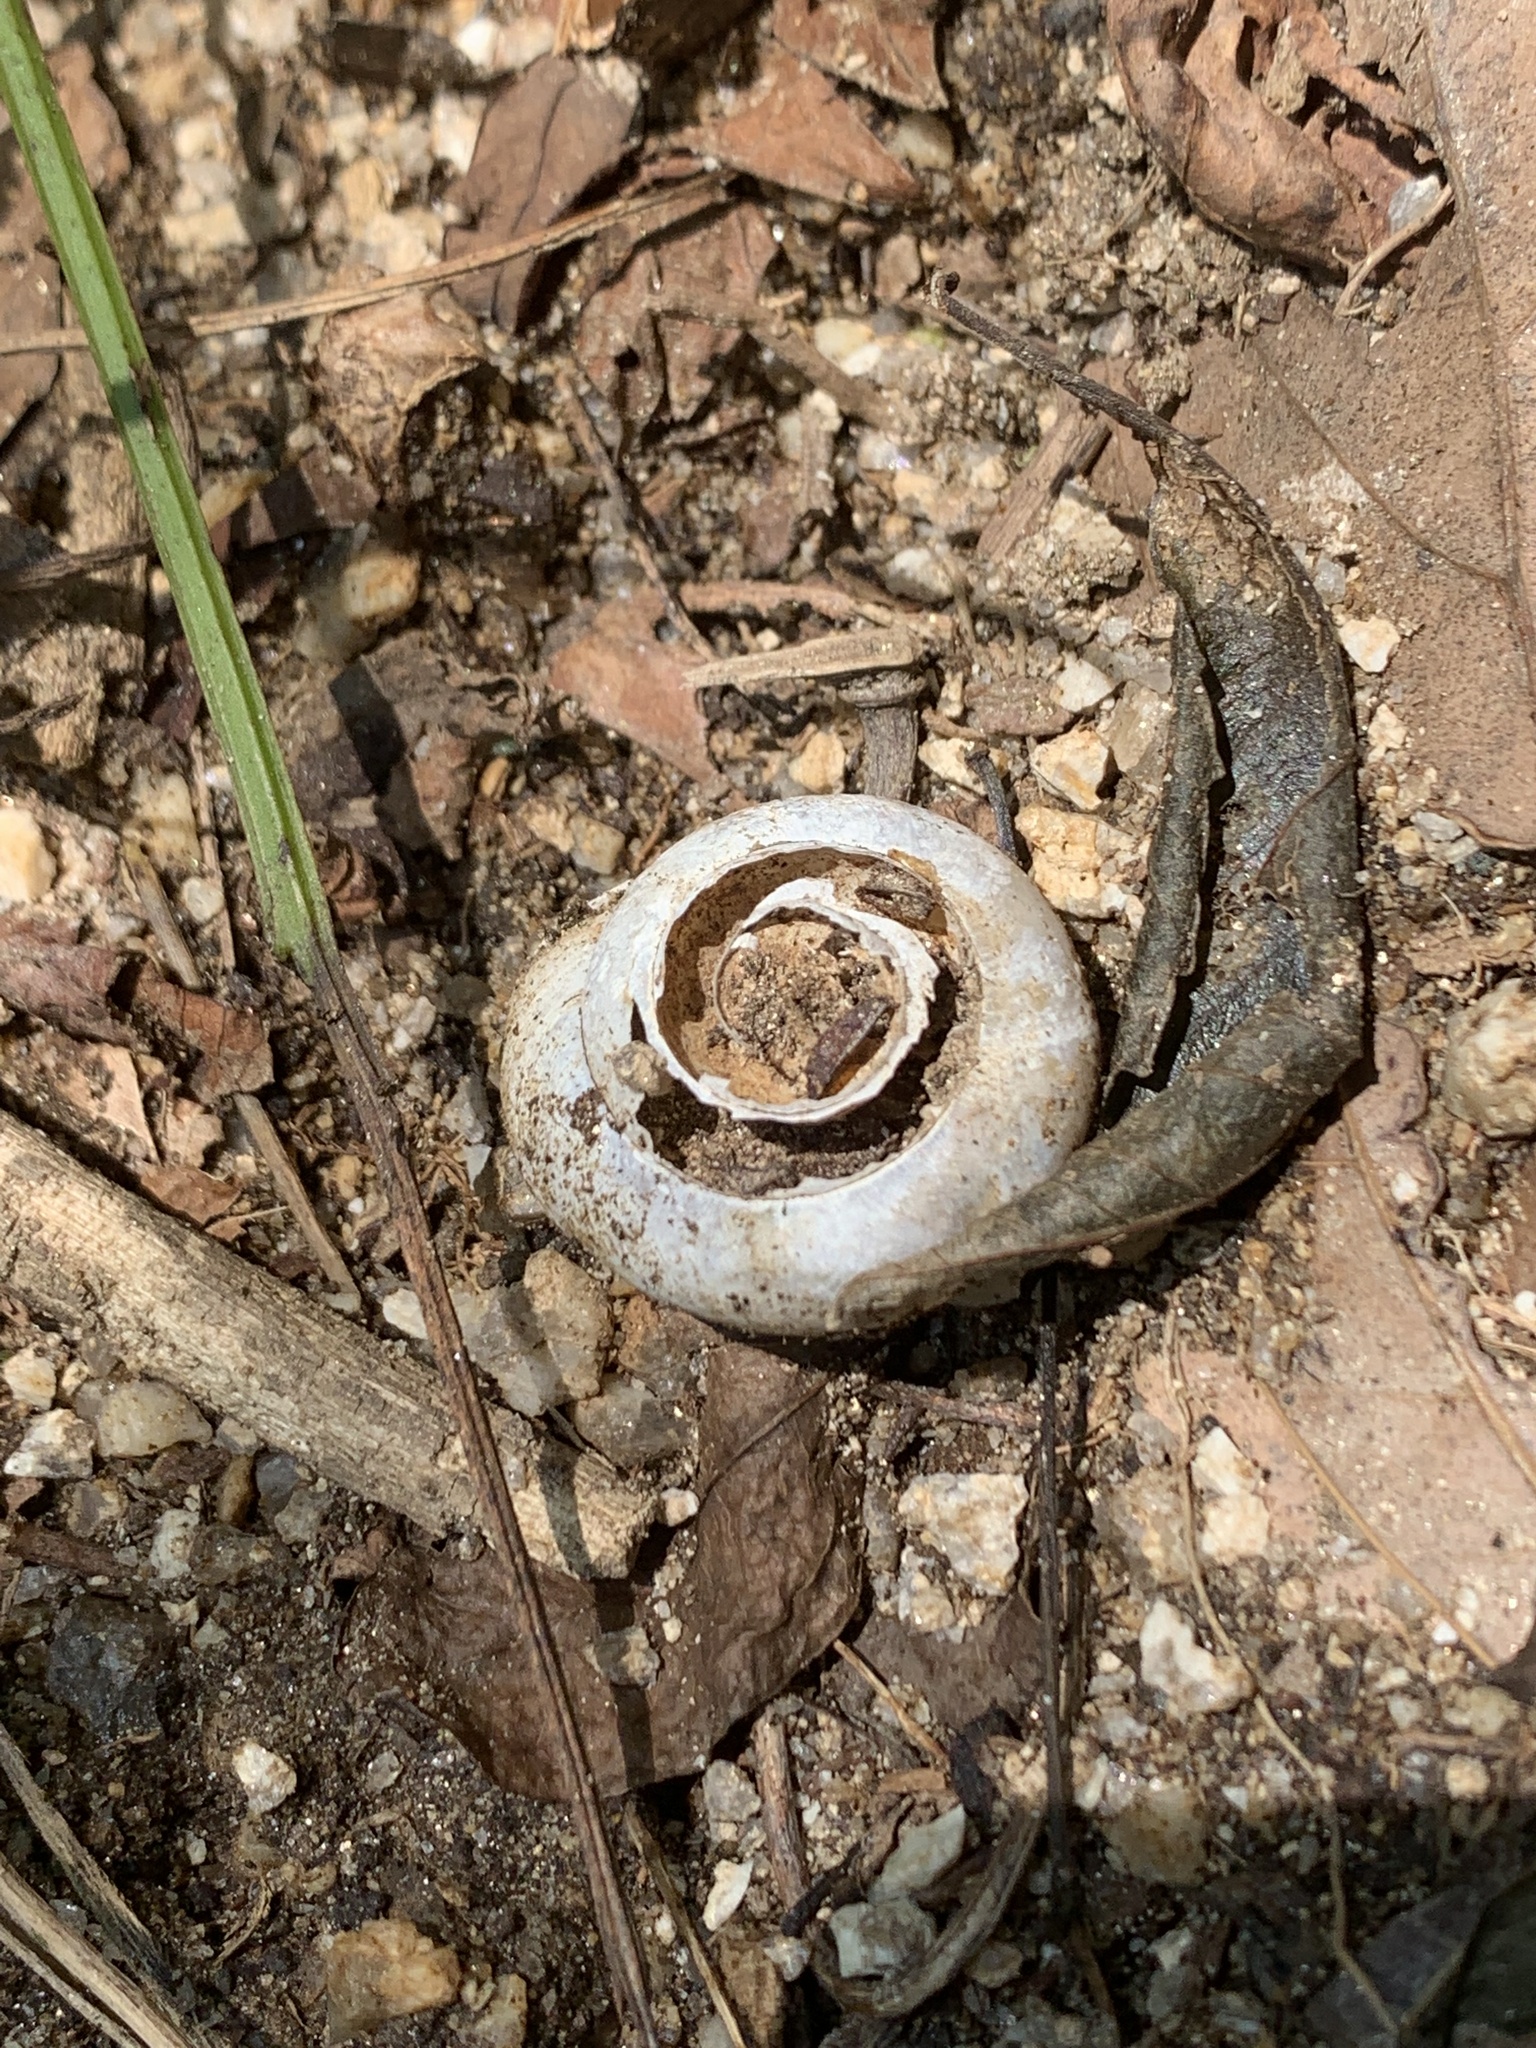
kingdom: Animalia
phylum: Mollusca
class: Gastropoda
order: Stylommatophora
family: Camaenidae
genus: Euhadra
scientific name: Euhadra subnimbosa
